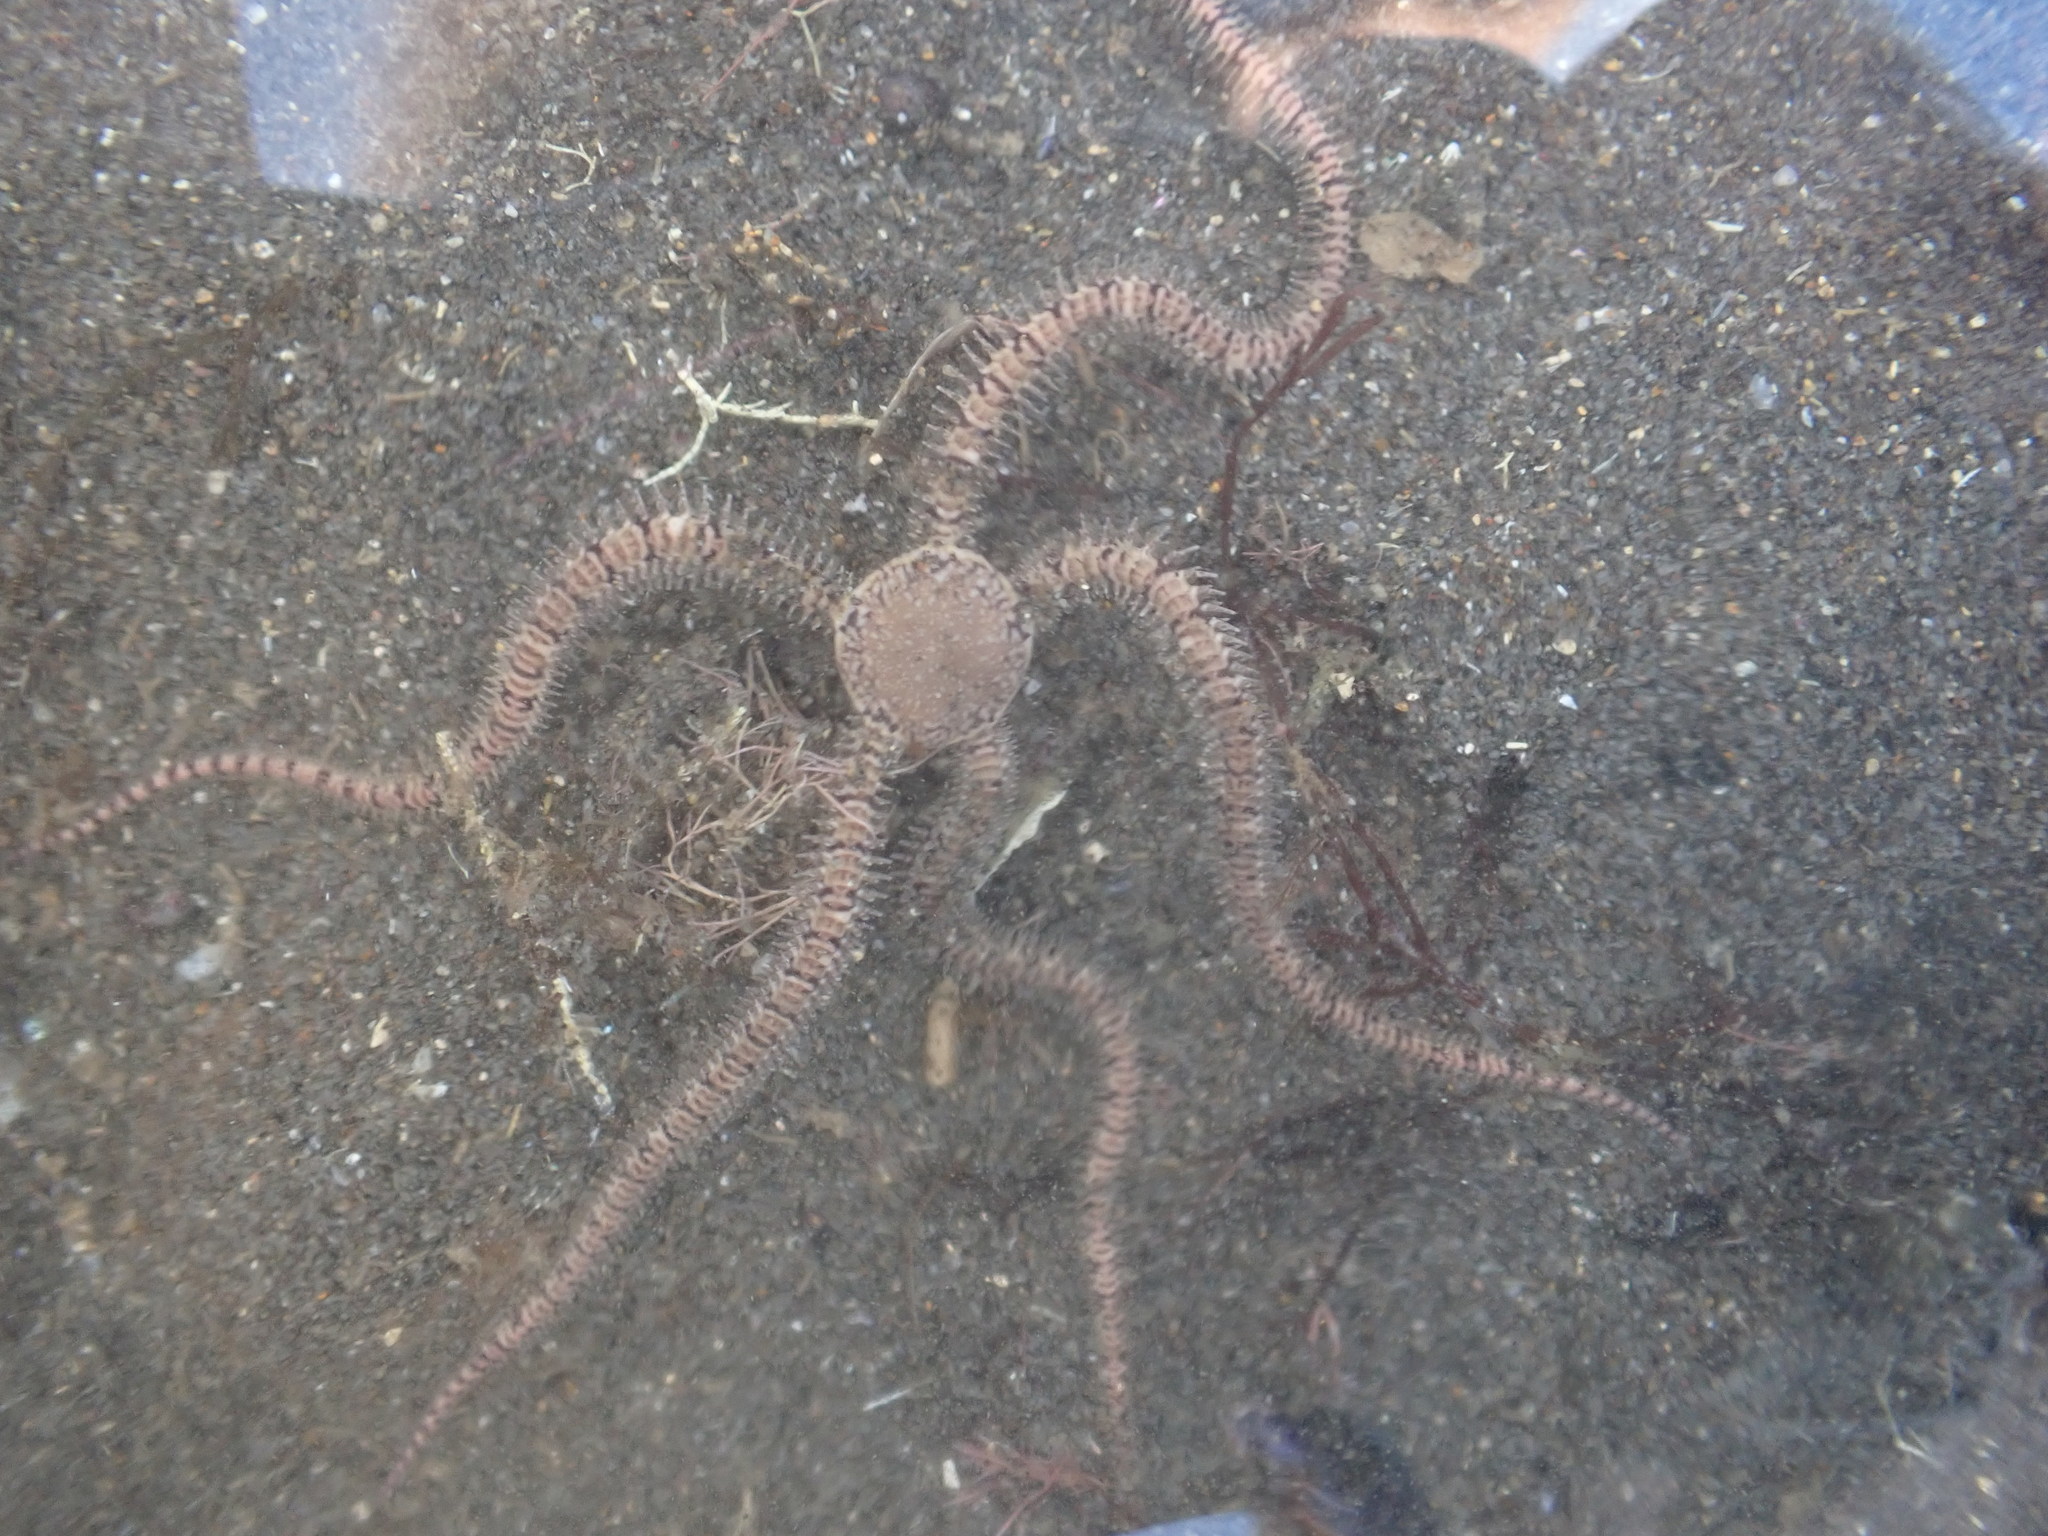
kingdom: Animalia
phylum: Echinodermata
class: Ophiuroidea
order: Amphilepidida
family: Ophionereididae
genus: Ophionereis
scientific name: Ophionereis fasciata
